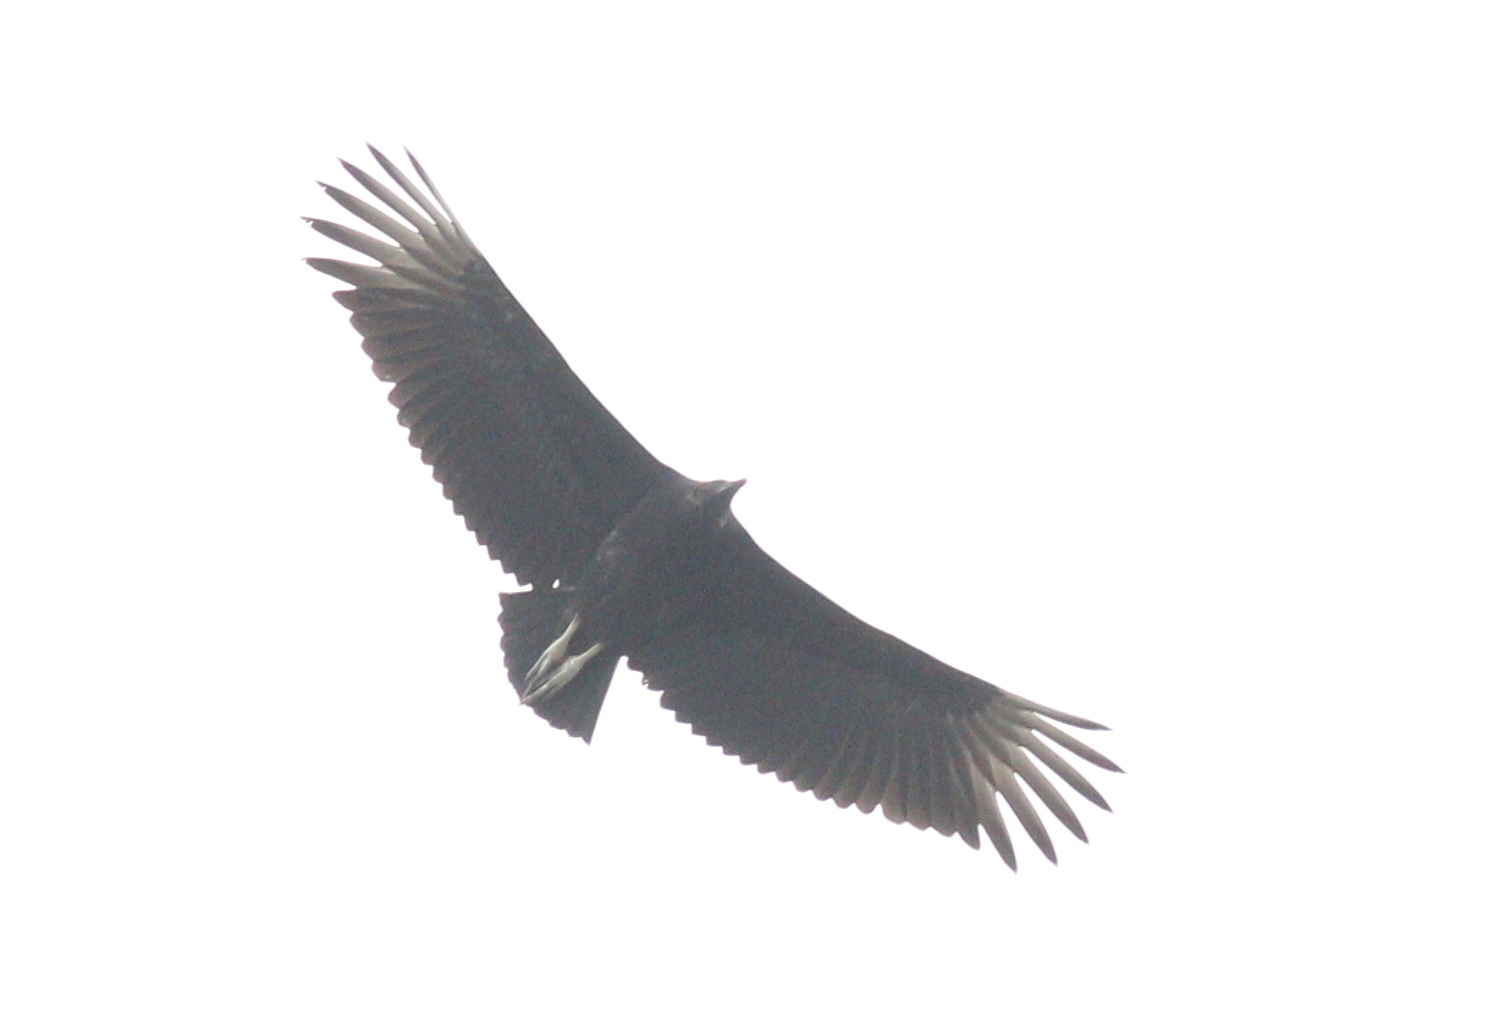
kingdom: Animalia
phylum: Chordata
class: Aves
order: Accipitriformes
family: Cathartidae
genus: Coragyps
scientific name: Coragyps atratus
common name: Black vulture
